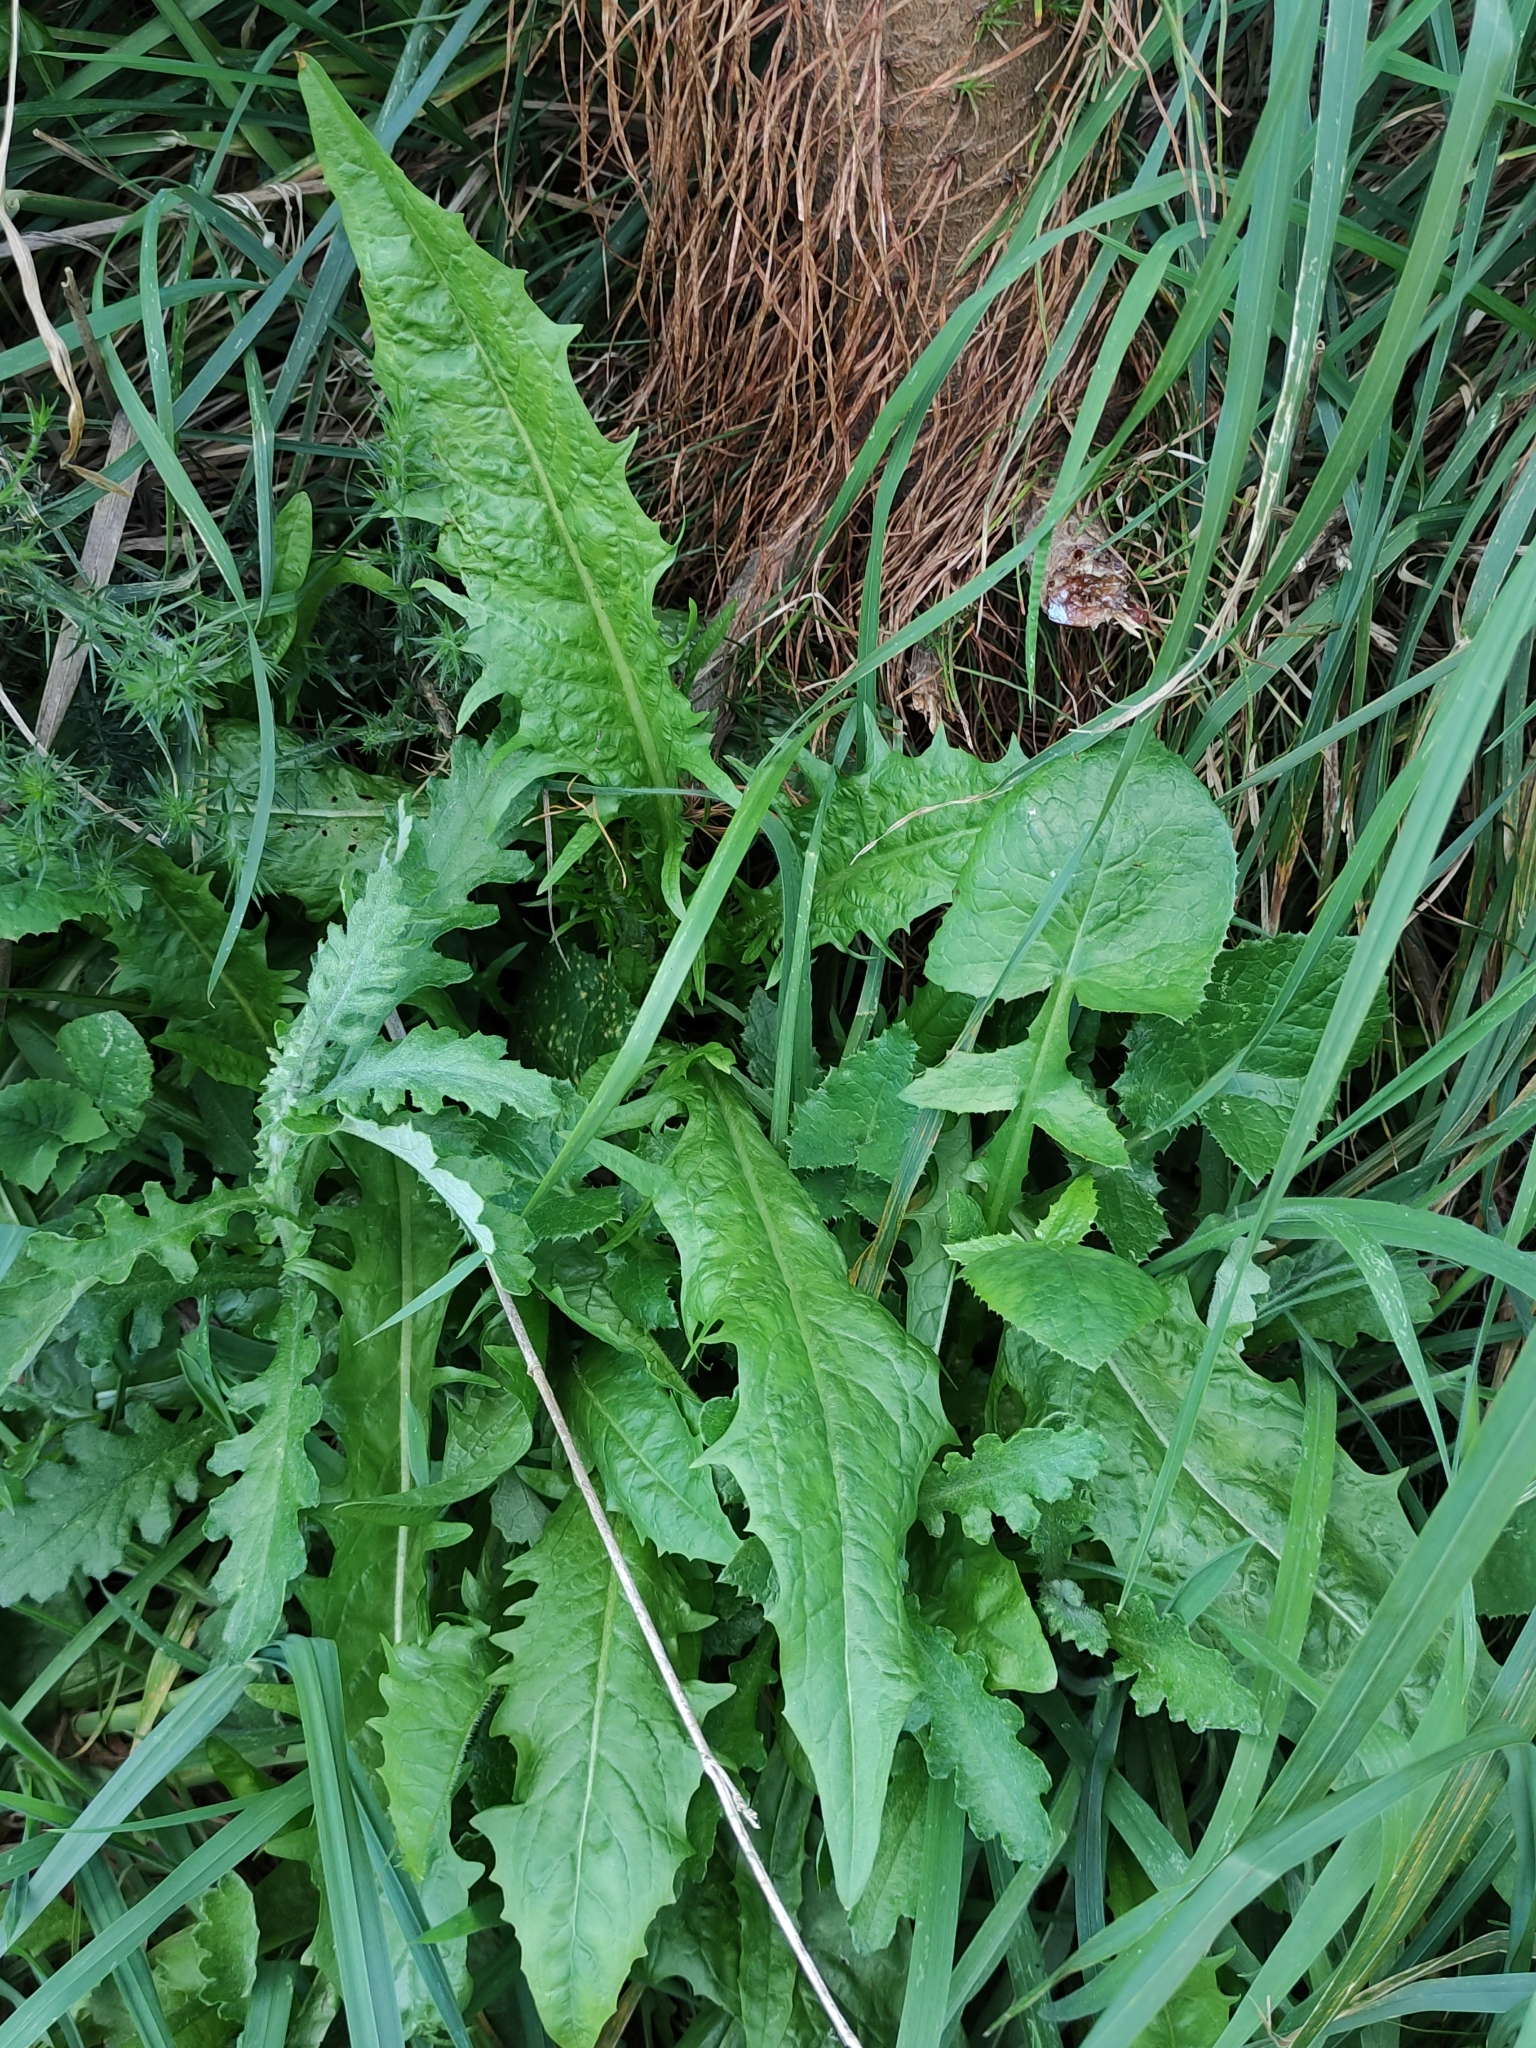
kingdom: Plantae
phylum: Tracheophyta
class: Magnoliopsida
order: Asterales
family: Asteraceae
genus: Crepis
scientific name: Crepis capillaris
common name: Smooth hawksbeard
